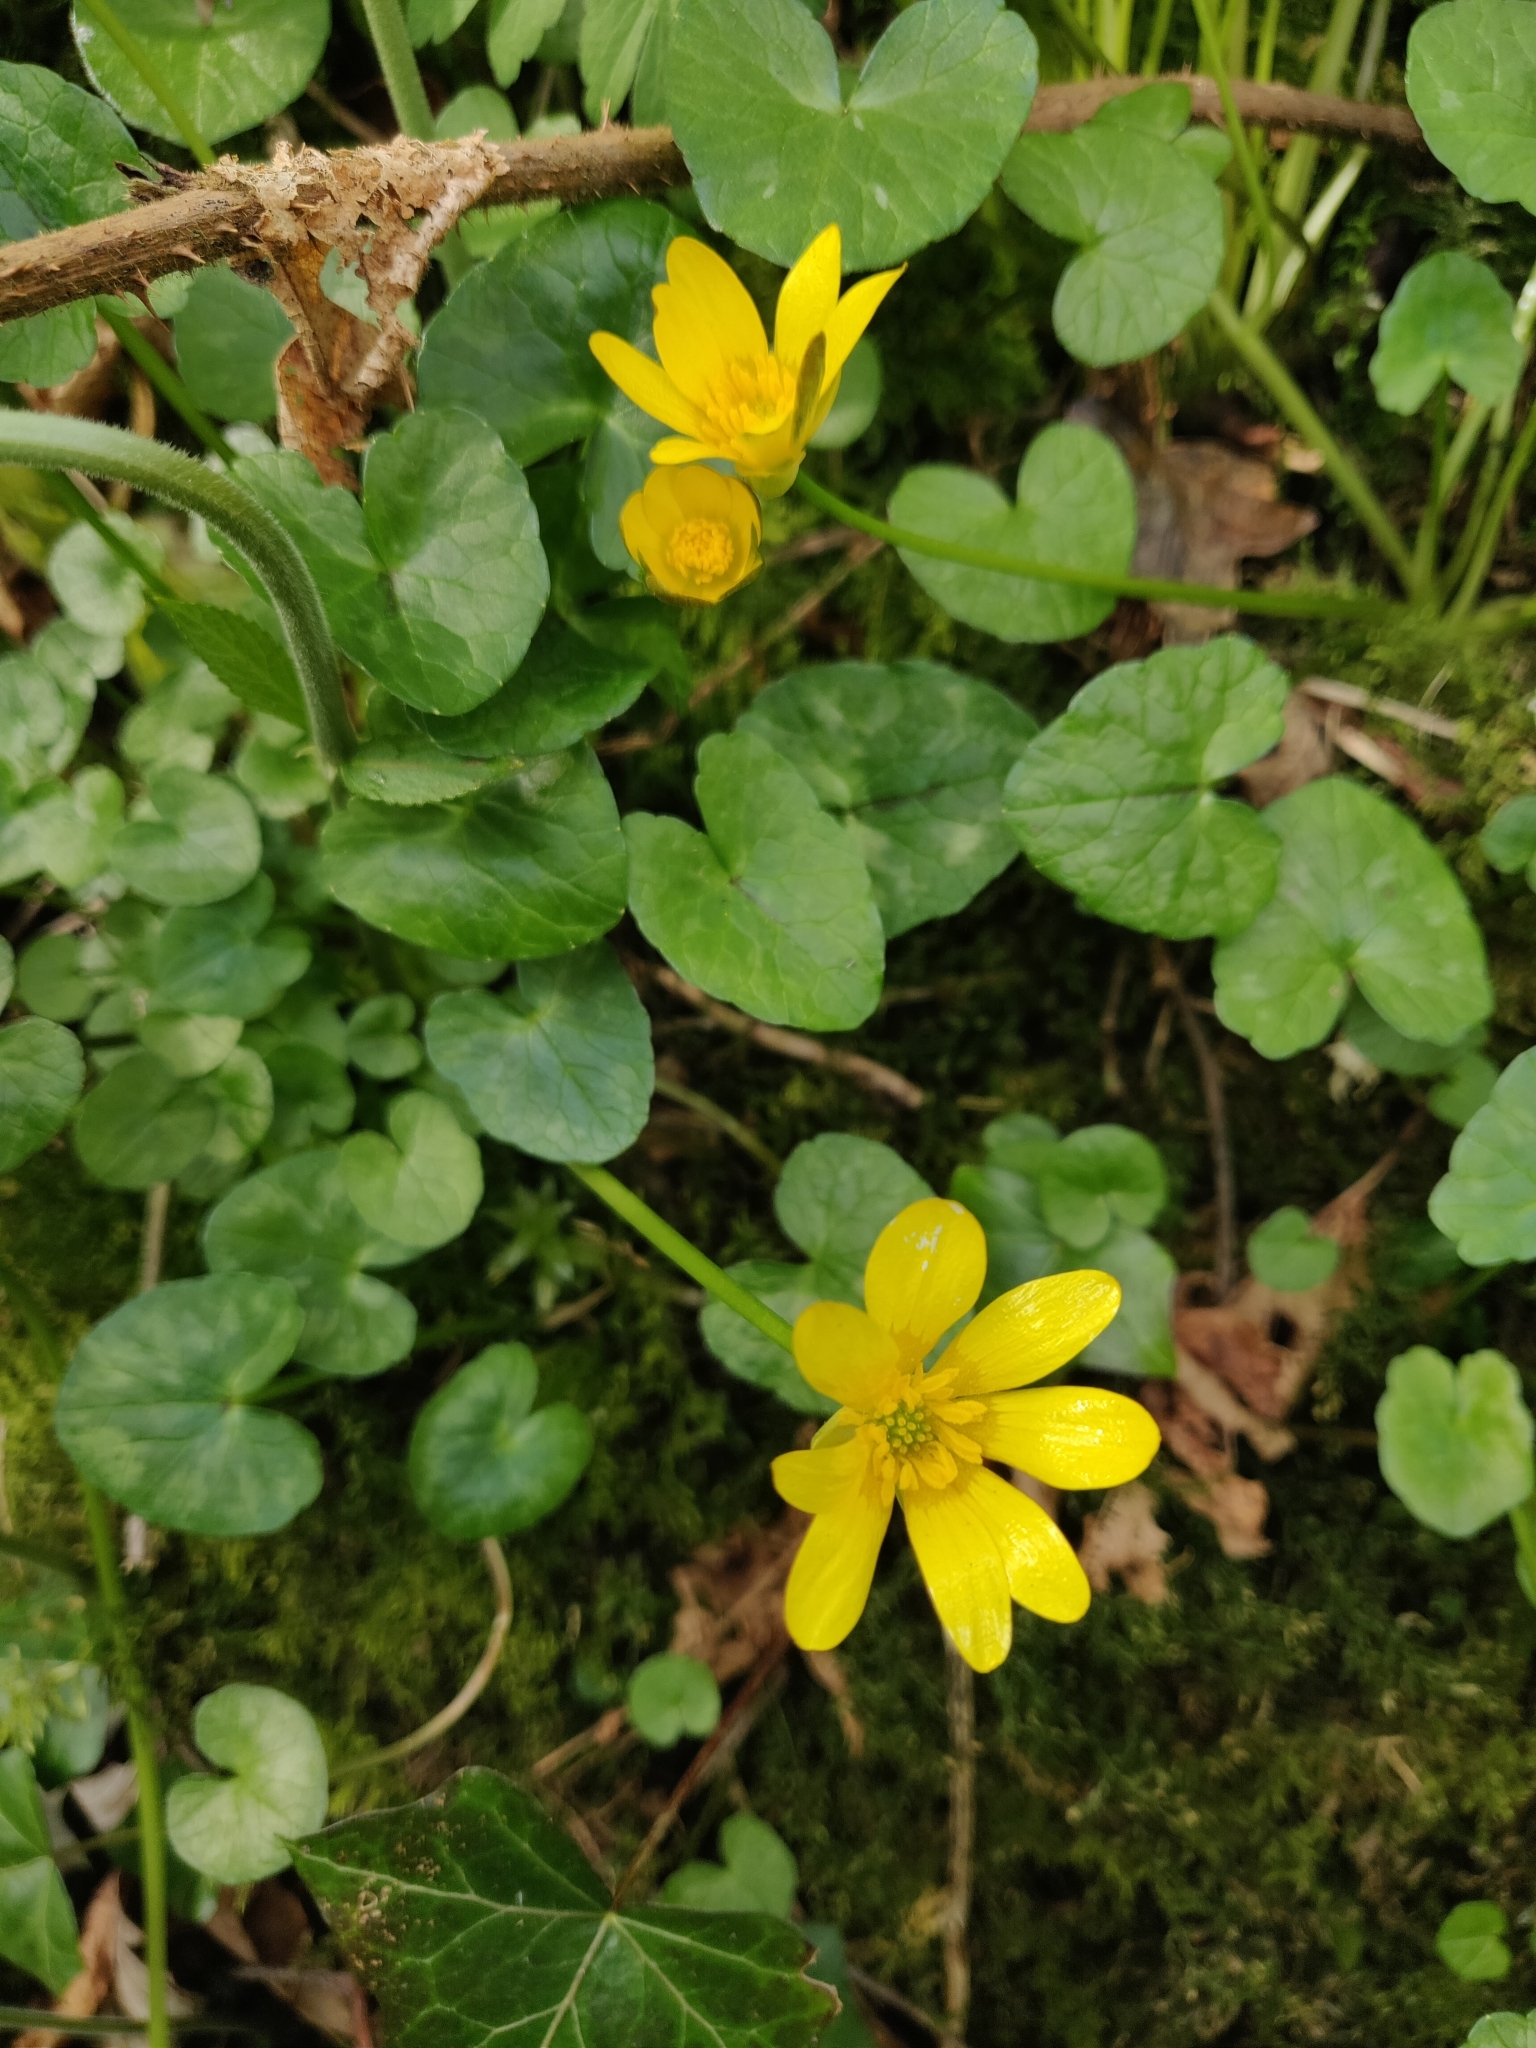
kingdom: Plantae
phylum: Tracheophyta
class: Magnoliopsida
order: Ranunculales
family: Ranunculaceae
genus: Ficaria
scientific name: Ficaria verna
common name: Lesser celandine
